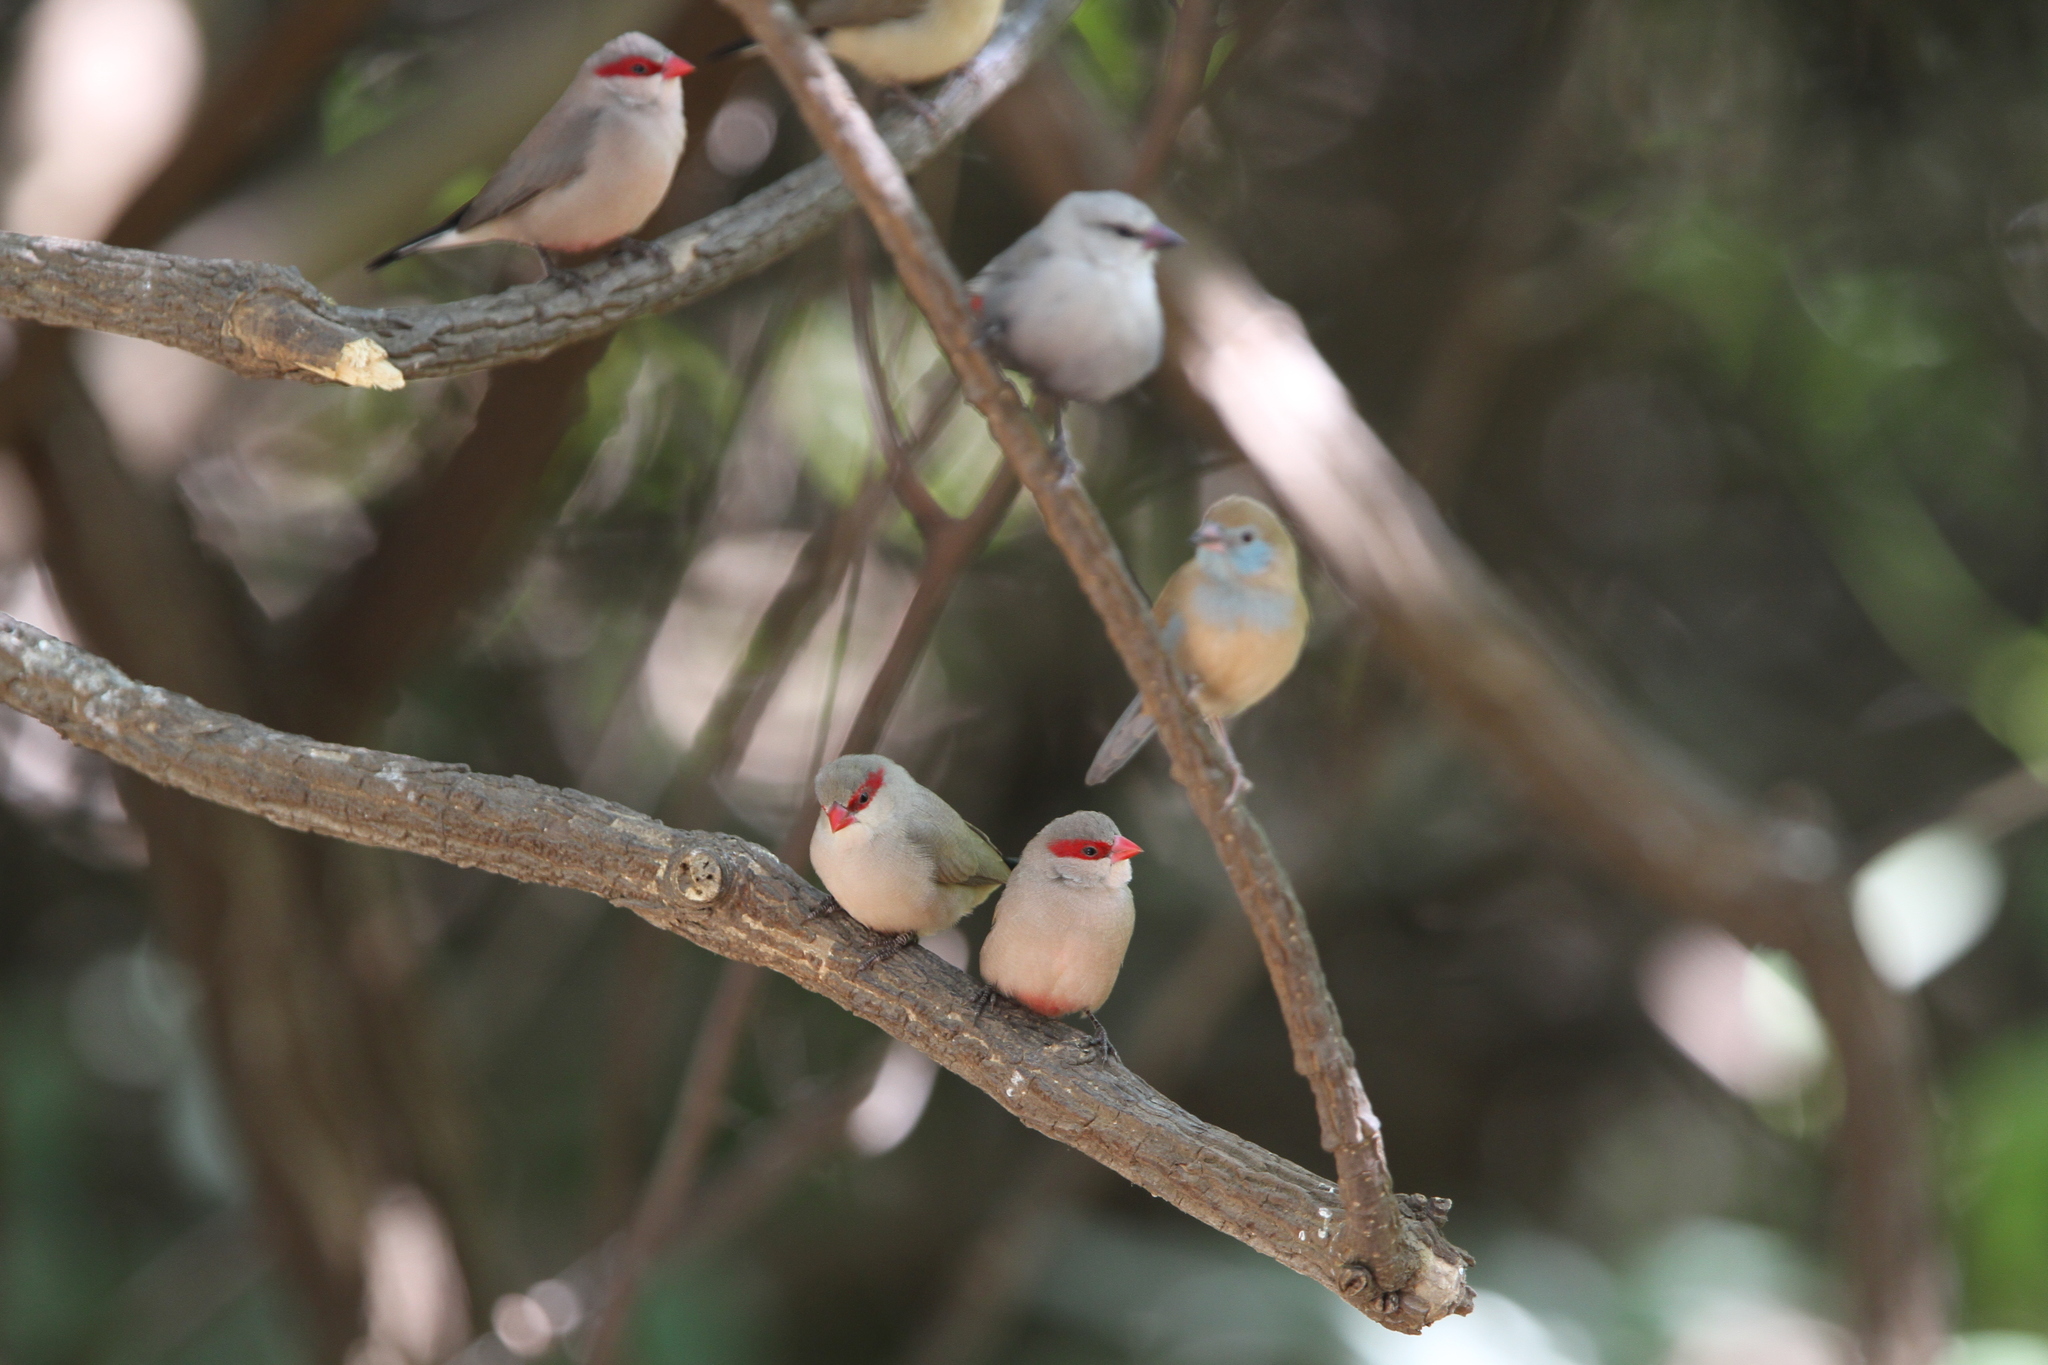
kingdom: Animalia
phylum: Chordata
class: Aves
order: Passeriformes
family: Estrildidae
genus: Estrilda
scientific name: Estrilda troglodytes
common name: Black-rumped waxbill
